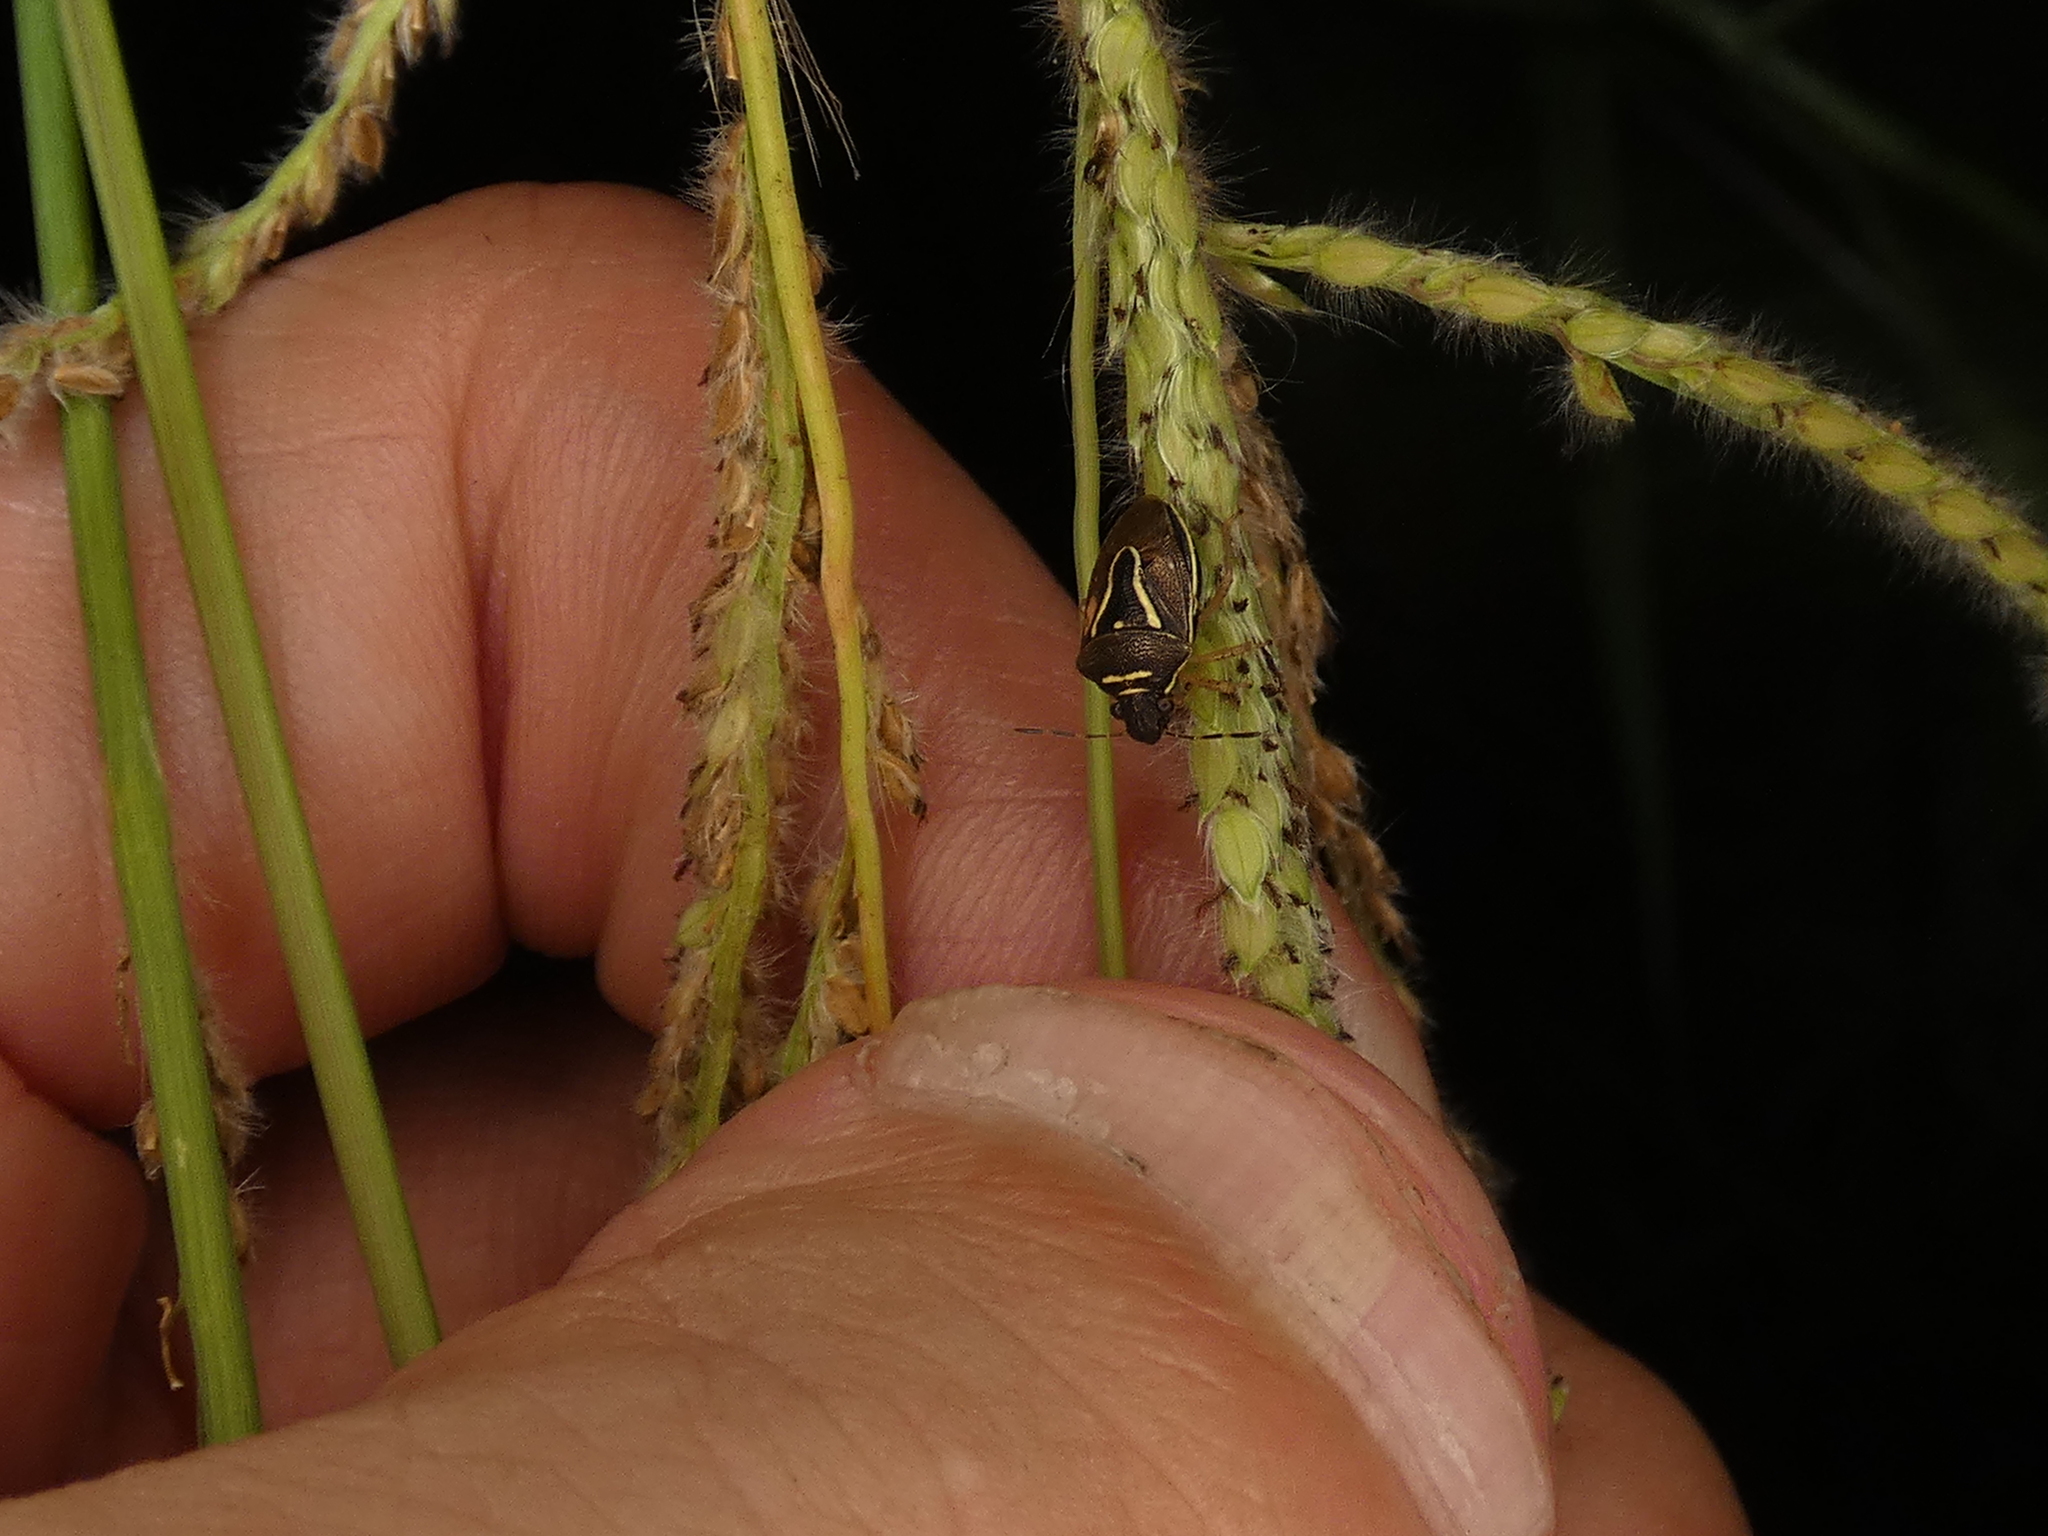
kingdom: Animalia
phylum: Arthropoda
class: Insecta
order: Hemiptera
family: Pentatomidae
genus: Mormidea
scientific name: Mormidea lugens
